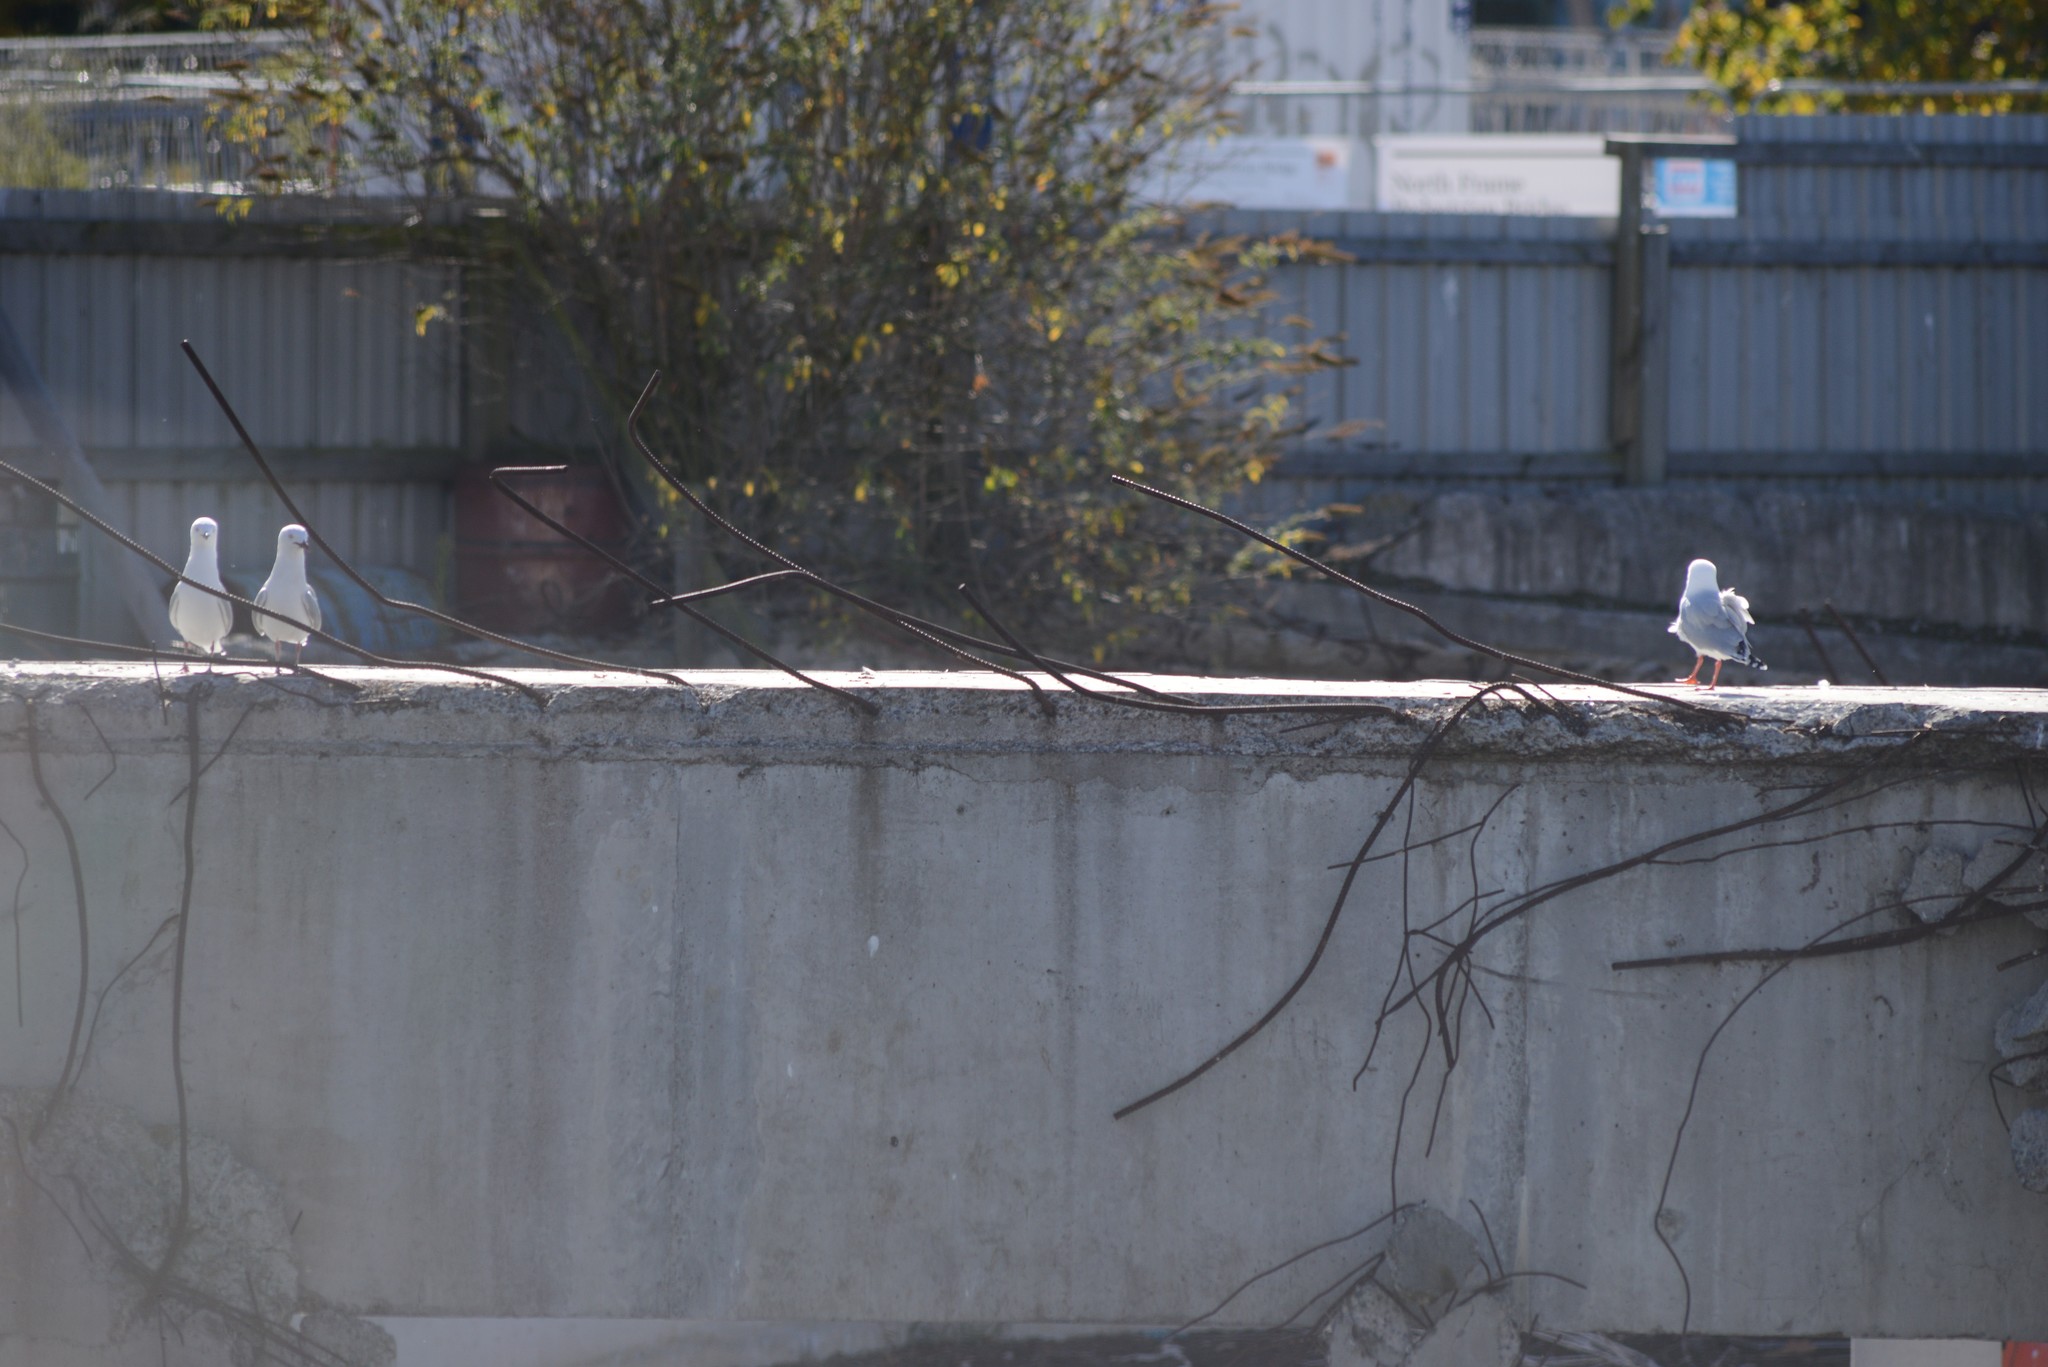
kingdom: Animalia
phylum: Chordata
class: Aves
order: Charadriiformes
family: Laridae
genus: Chroicocephalus
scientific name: Chroicocephalus novaehollandiae
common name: Silver gull
